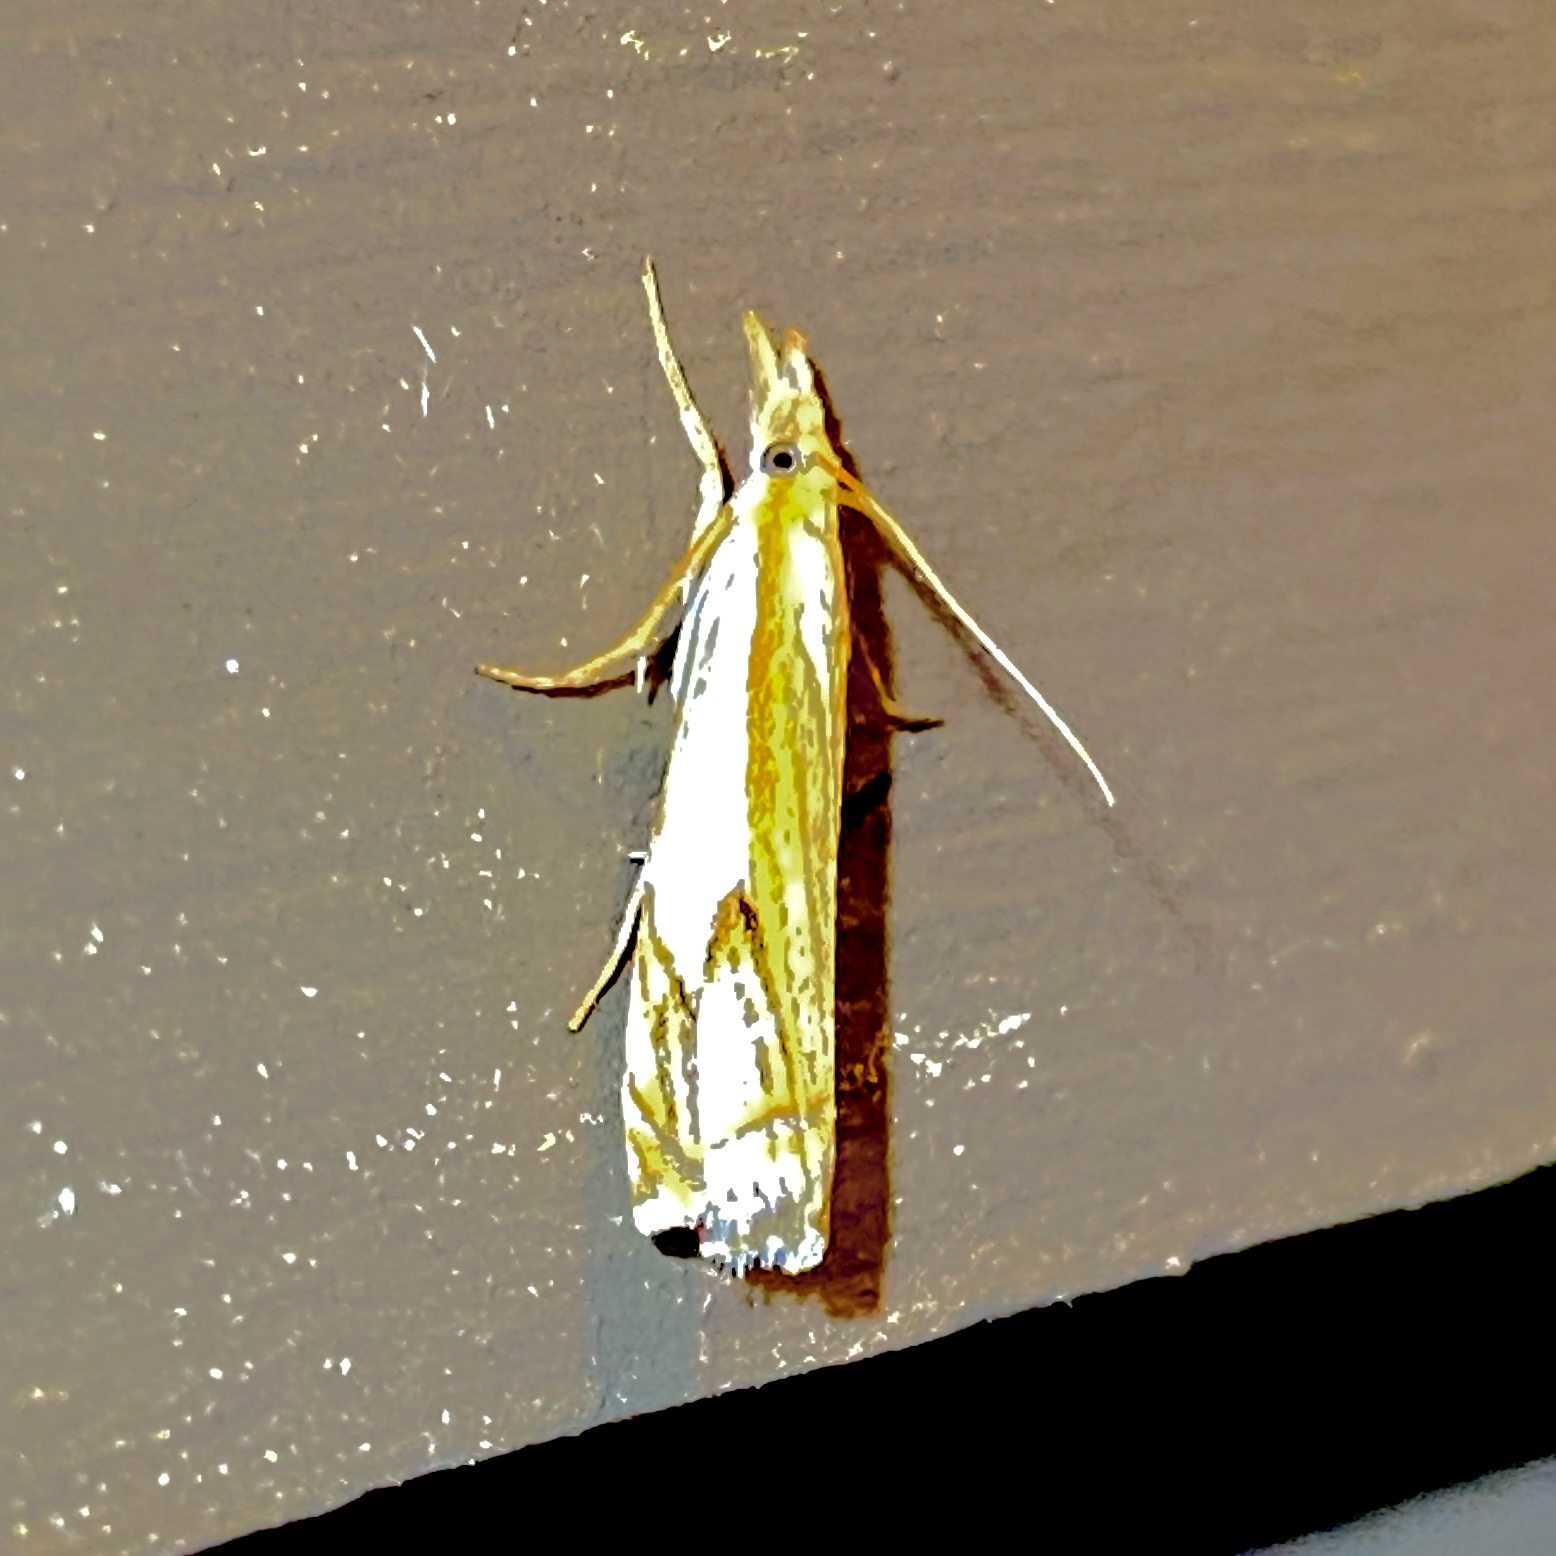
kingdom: Animalia
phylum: Arthropoda
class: Insecta
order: Lepidoptera
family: Crambidae
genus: Crambus
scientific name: Crambus agitatellus
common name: Double-banded grass-veneer
